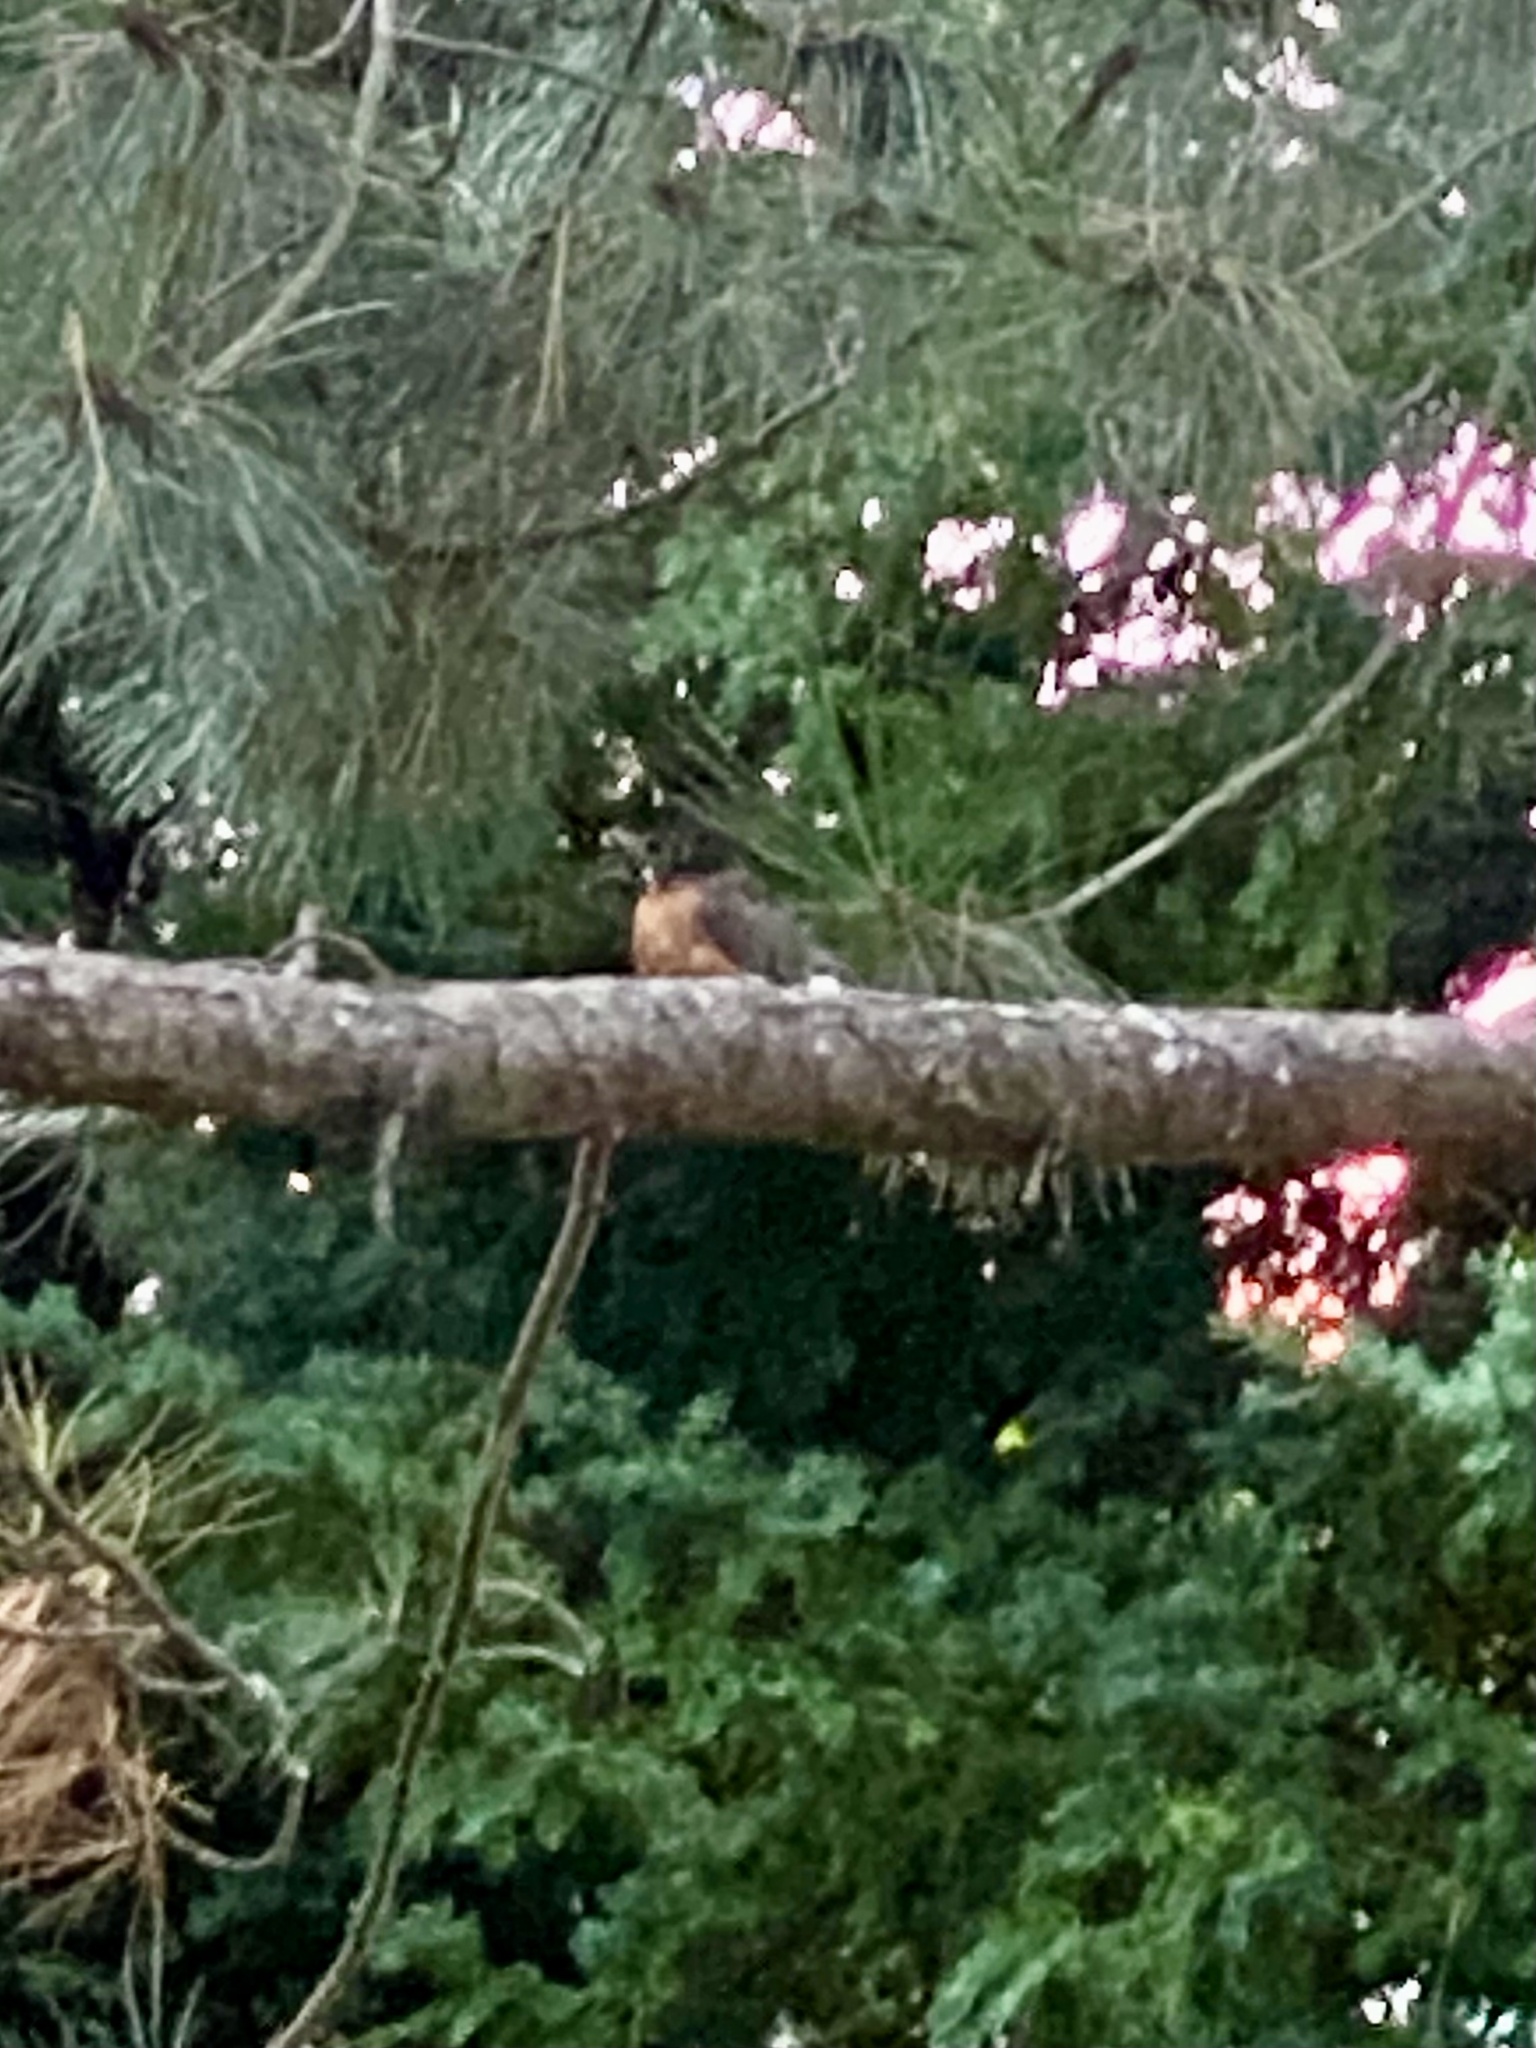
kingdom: Animalia
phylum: Chordata
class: Aves
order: Passeriformes
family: Turdidae
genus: Turdus
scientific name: Turdus migratorius
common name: American robin
